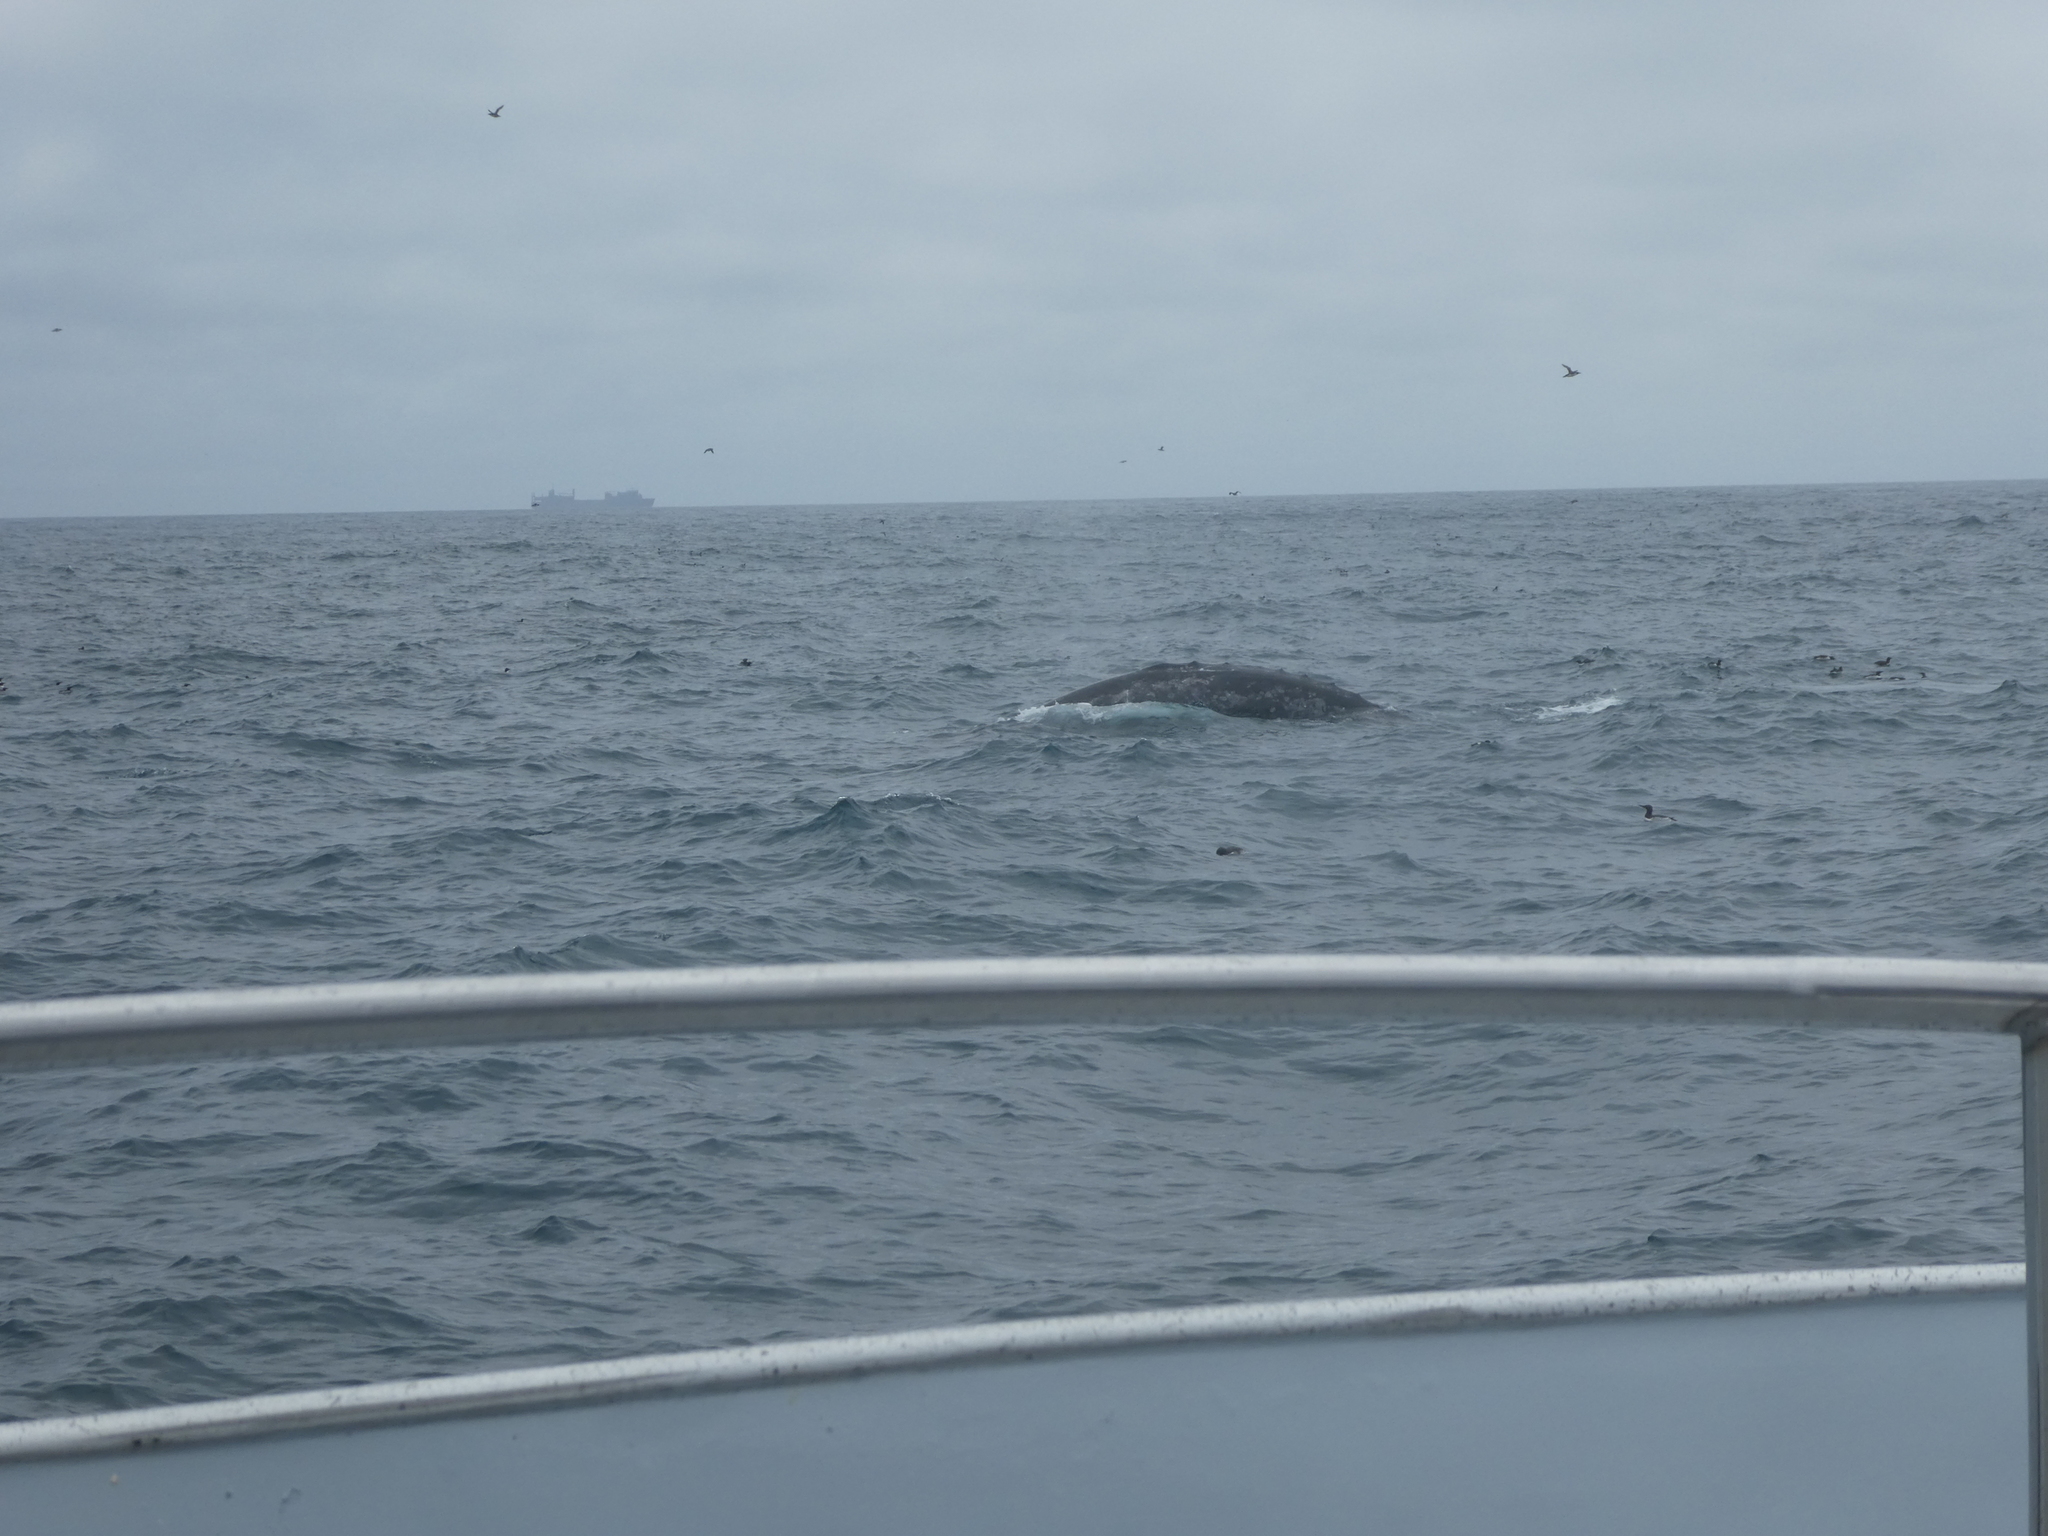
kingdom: Animalia
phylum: Chordata
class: Mammalia
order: Cetacea
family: Eschrichtiidae
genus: Eschrichtius
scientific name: Eschrichtius robustus
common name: Gray whale
